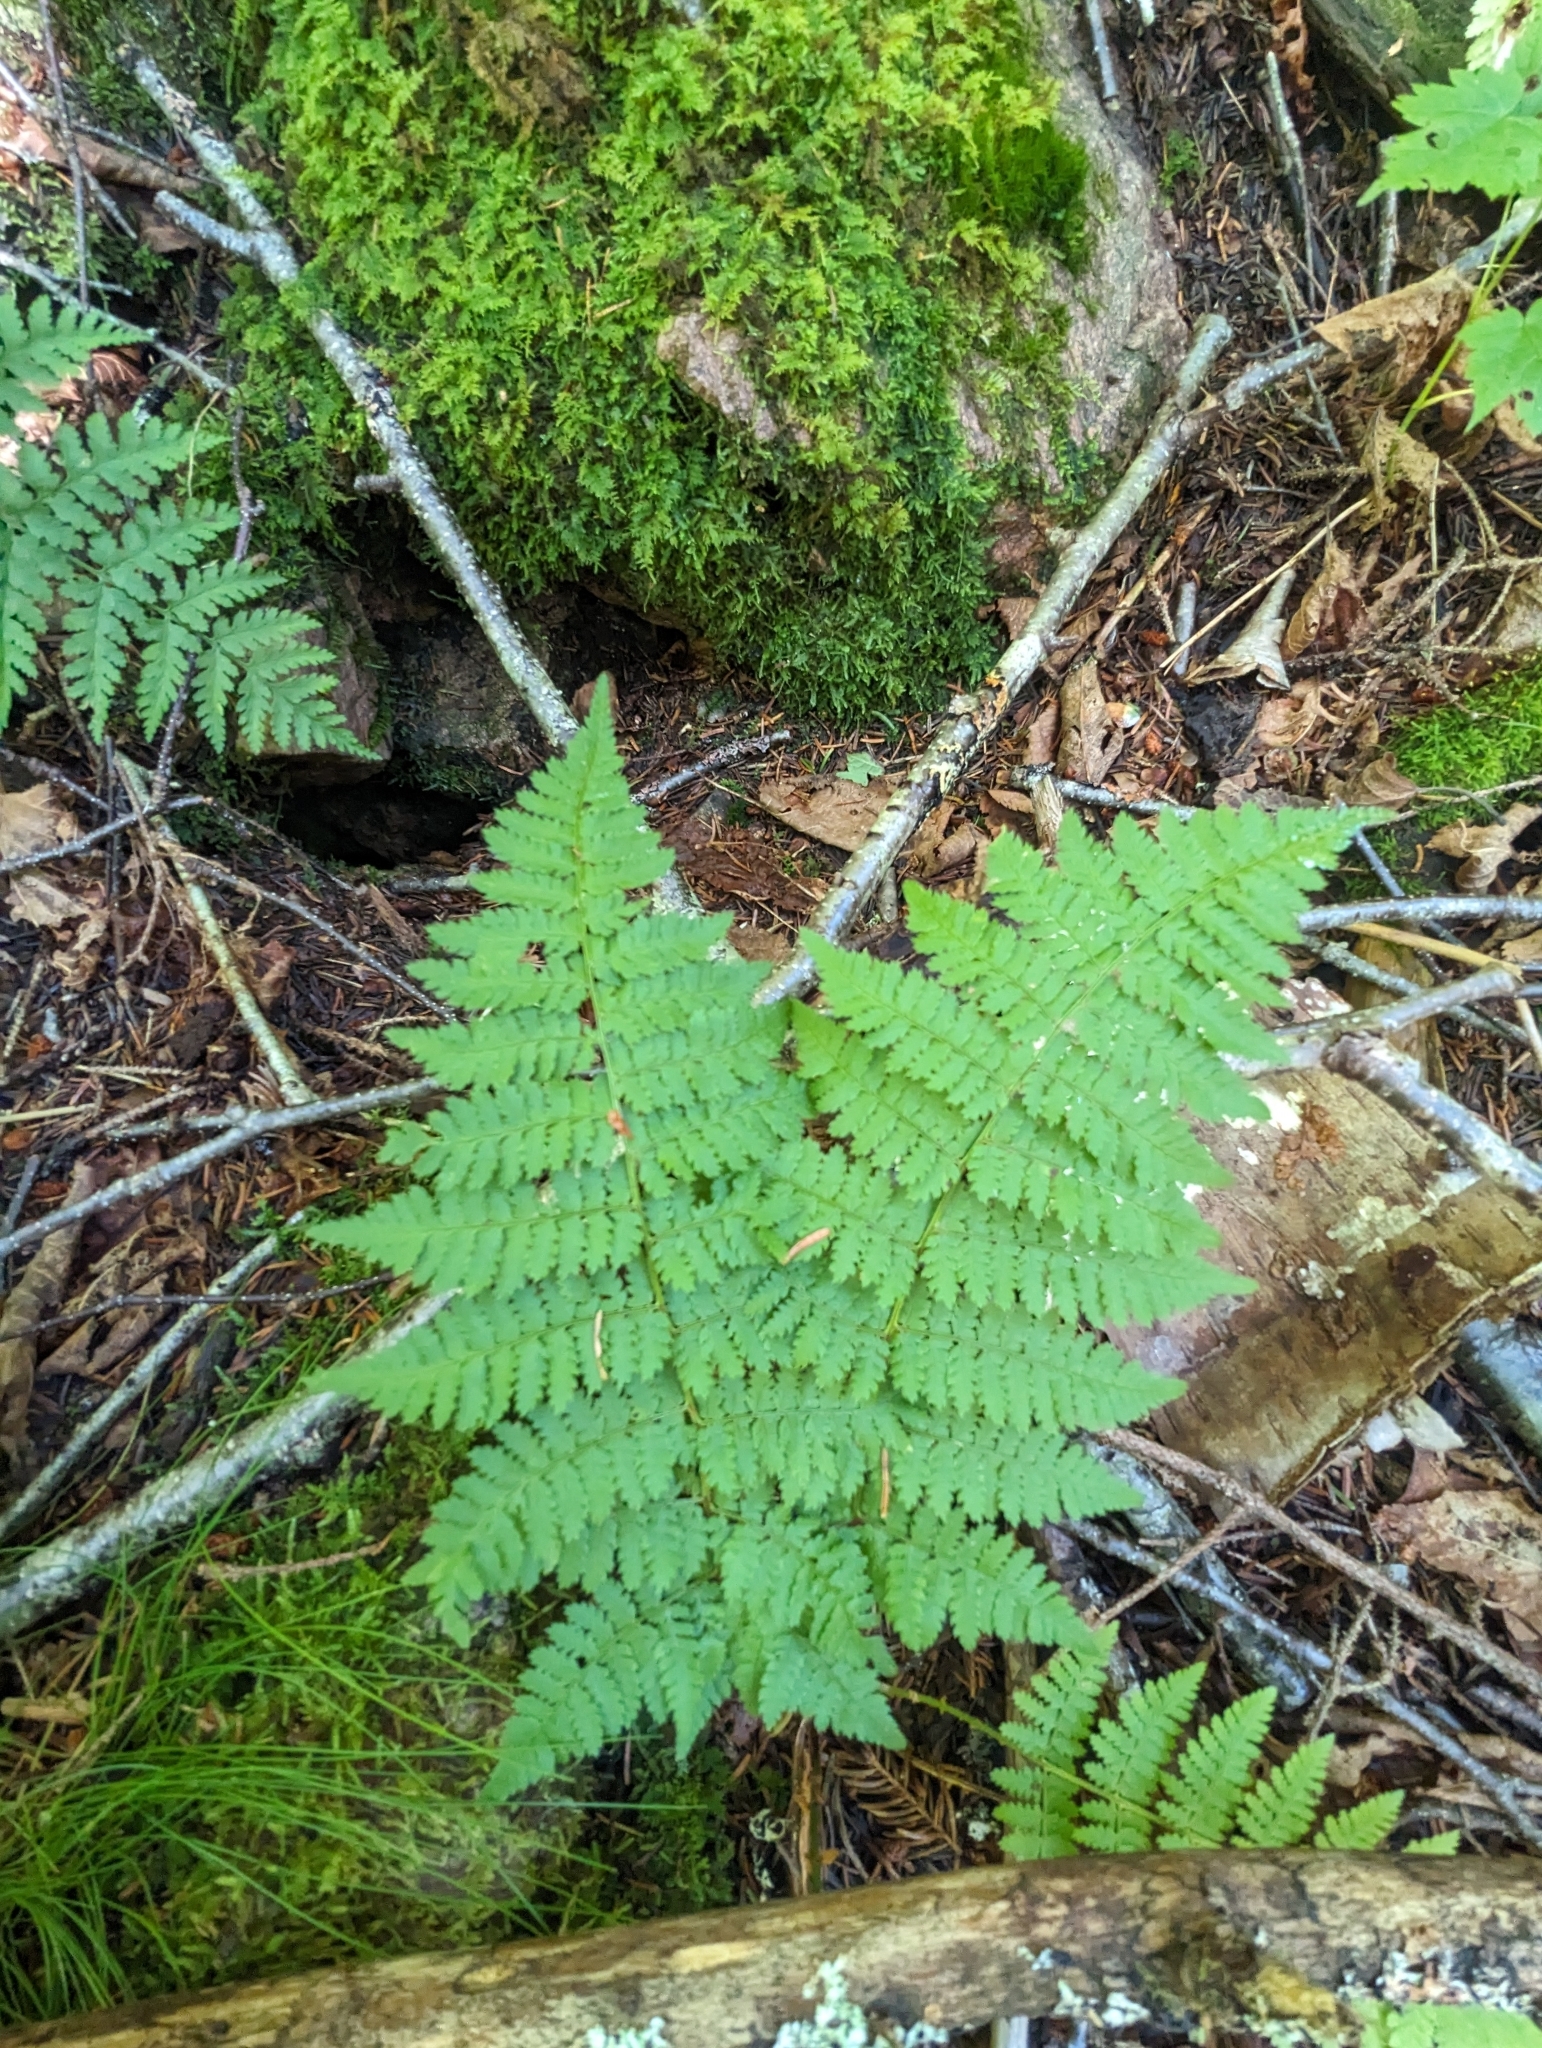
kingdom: Plantae
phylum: Tracheophyta
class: Polypodiopsida
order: Polypodiales
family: Dryopteridaceae
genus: Dryopteris
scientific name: Dryopteris intermedia
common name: Evergreen wood fern
